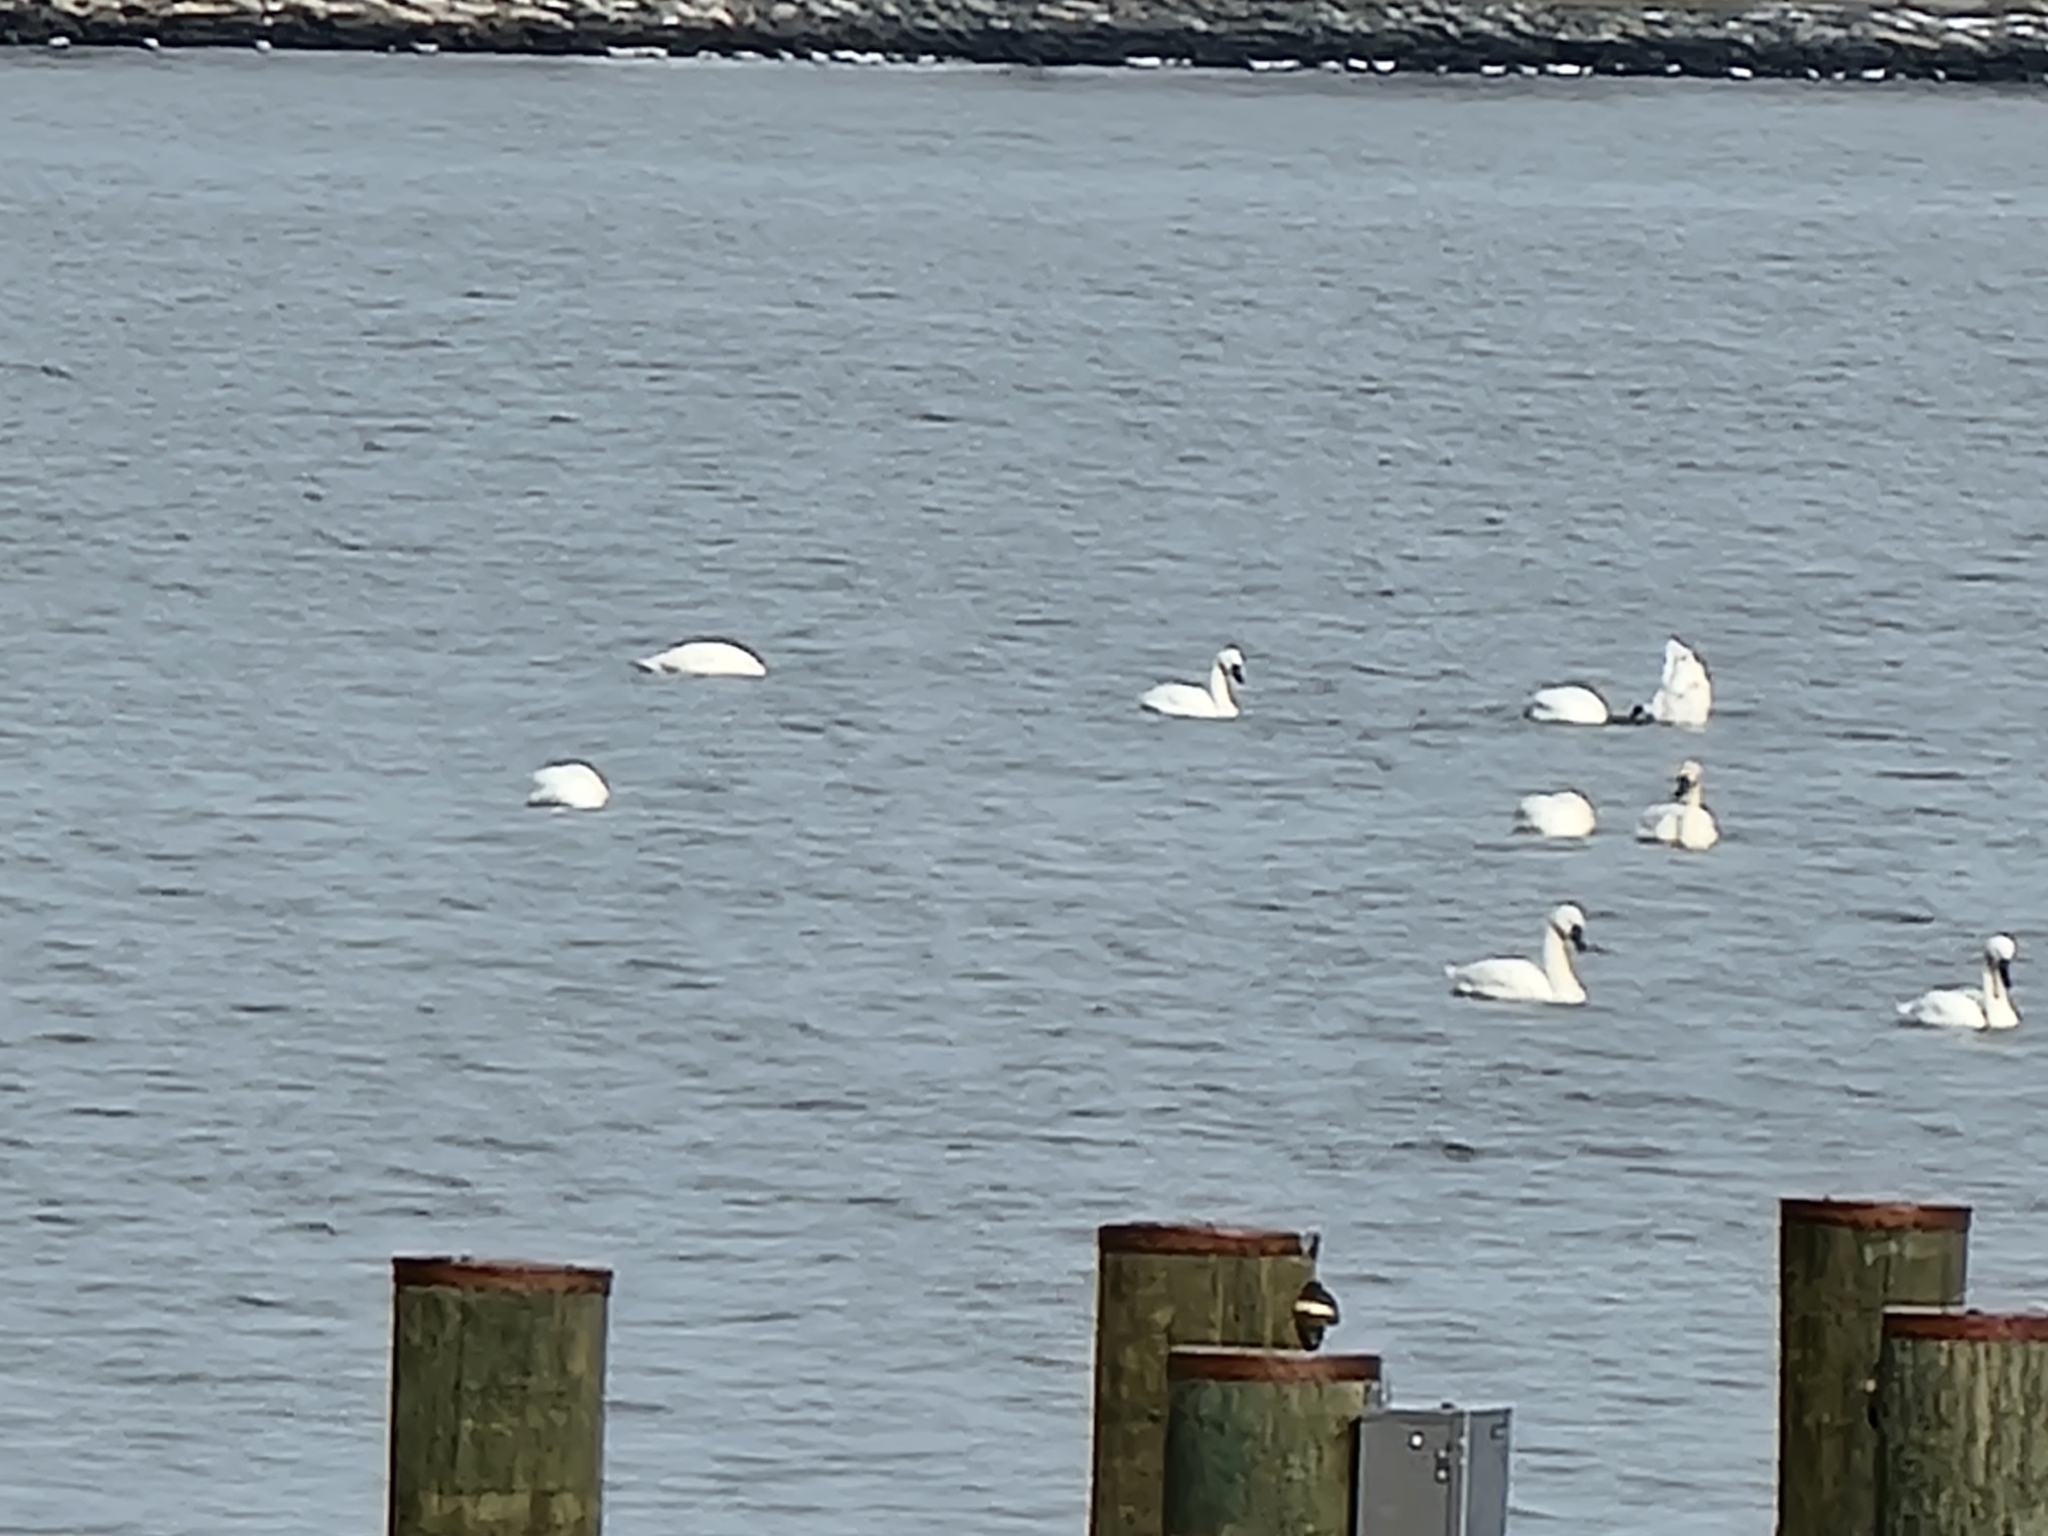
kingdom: Animalia
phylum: Chordata
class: Aves
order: Anseriformes
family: Anatidae
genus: Cygnus
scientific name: Cygnus columbianus
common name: Tundra swan
